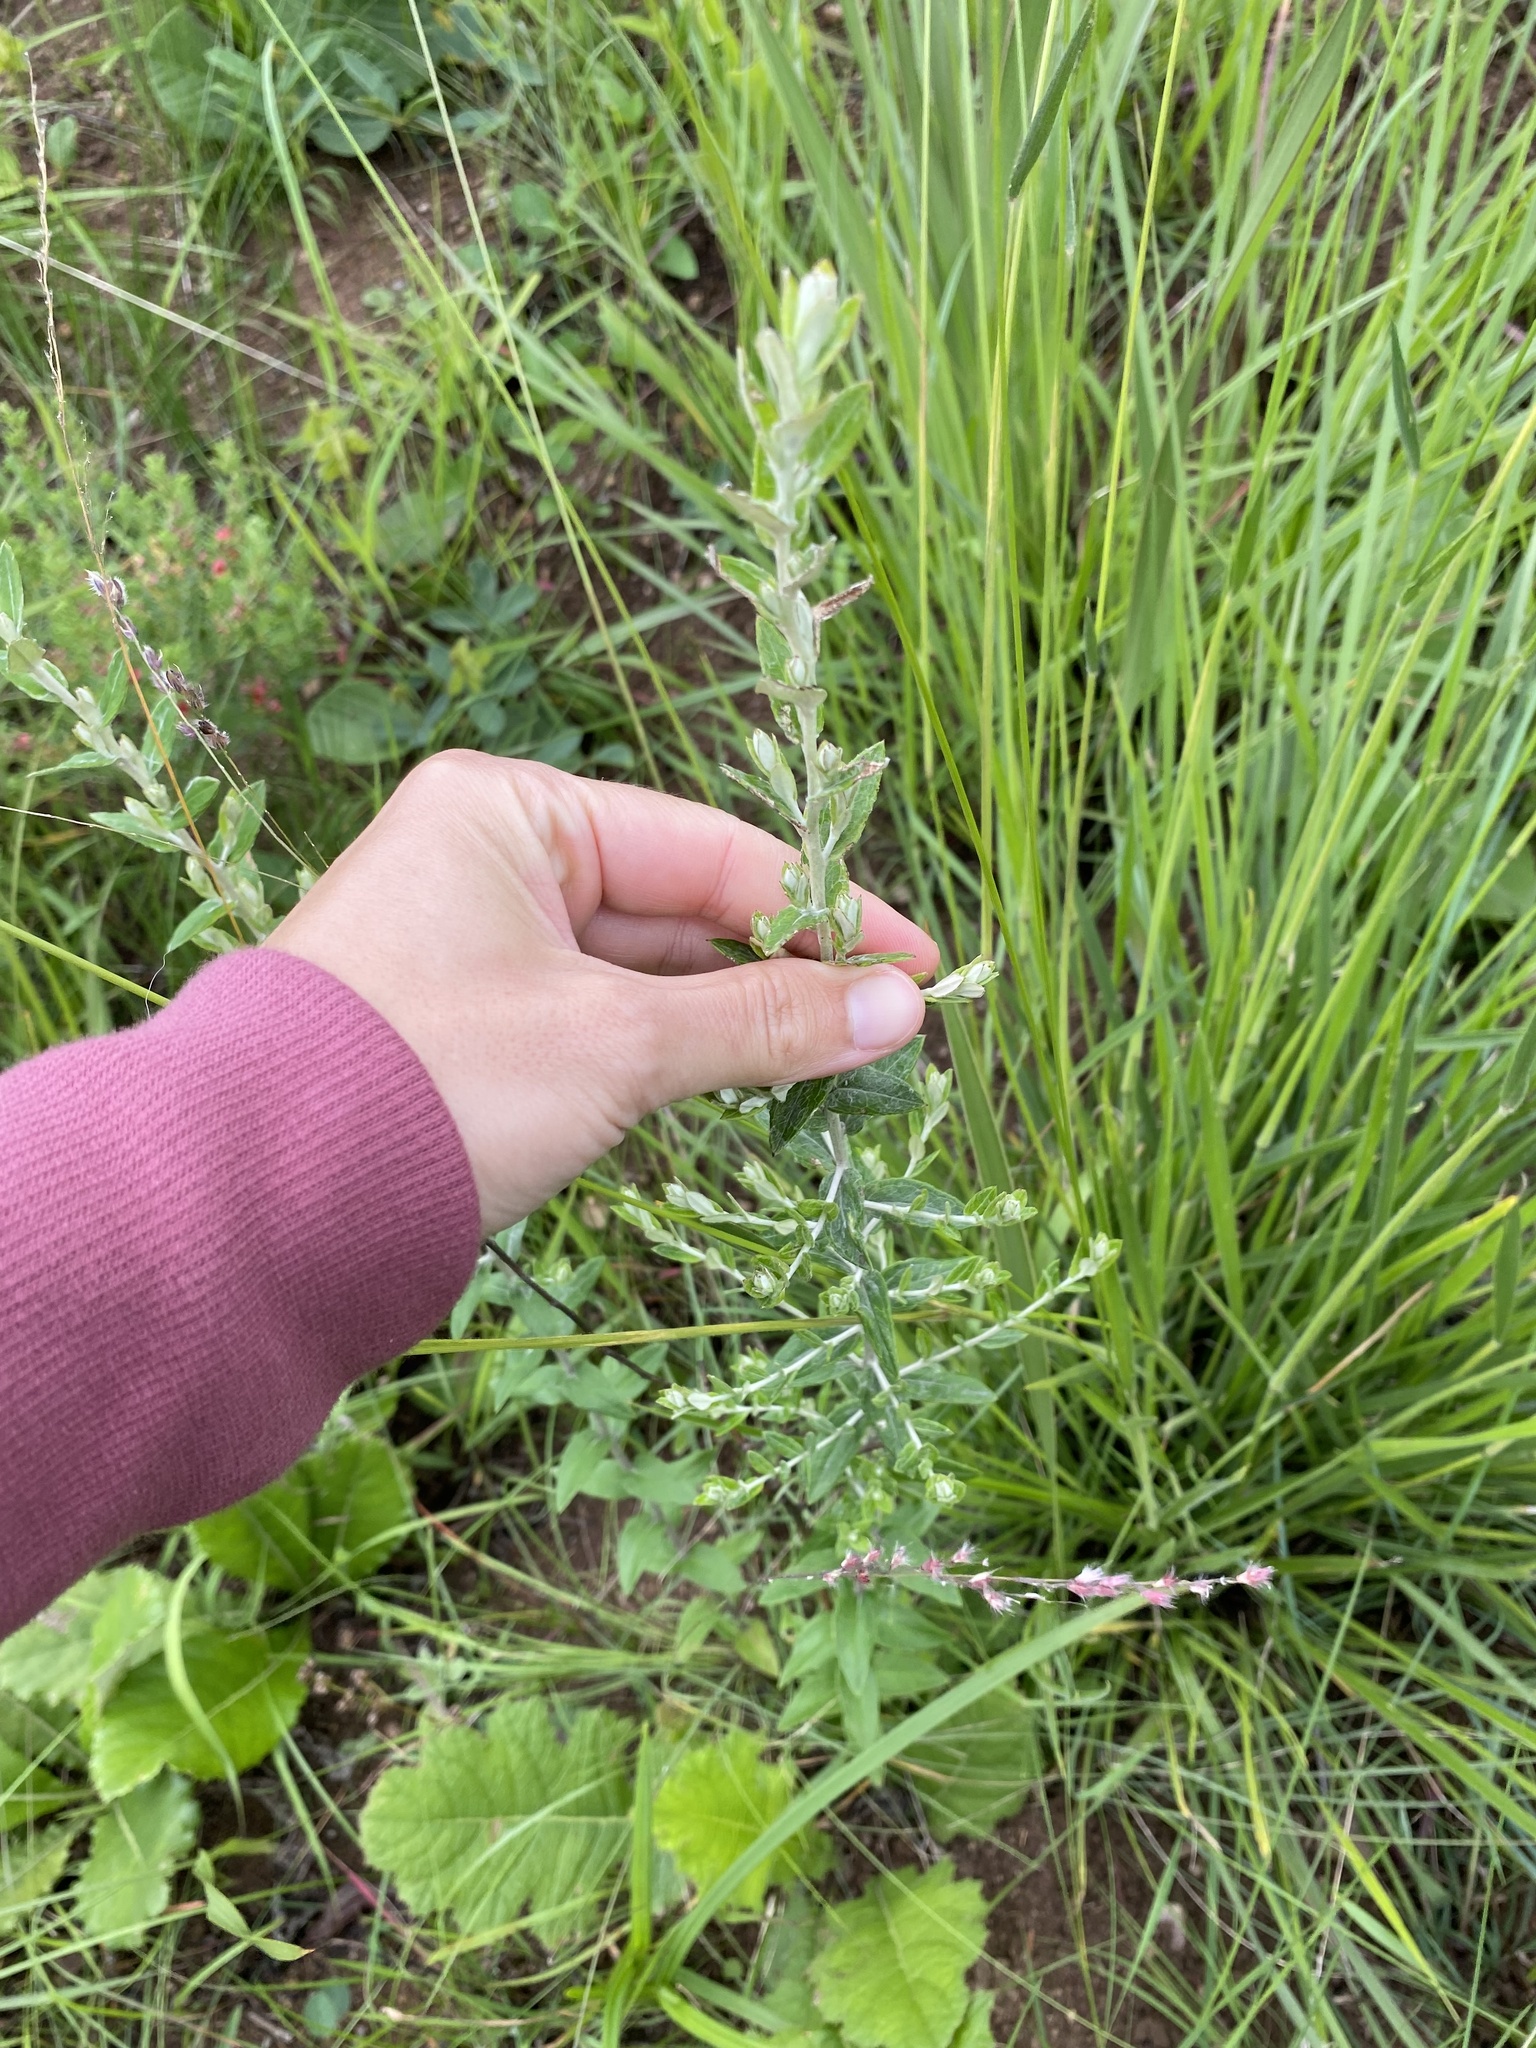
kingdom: Plantae
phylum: Tracheophyta
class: Magnoliopsida
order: Asterales
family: Asteraceae
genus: Athrixia
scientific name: Athrixia phylicoides
